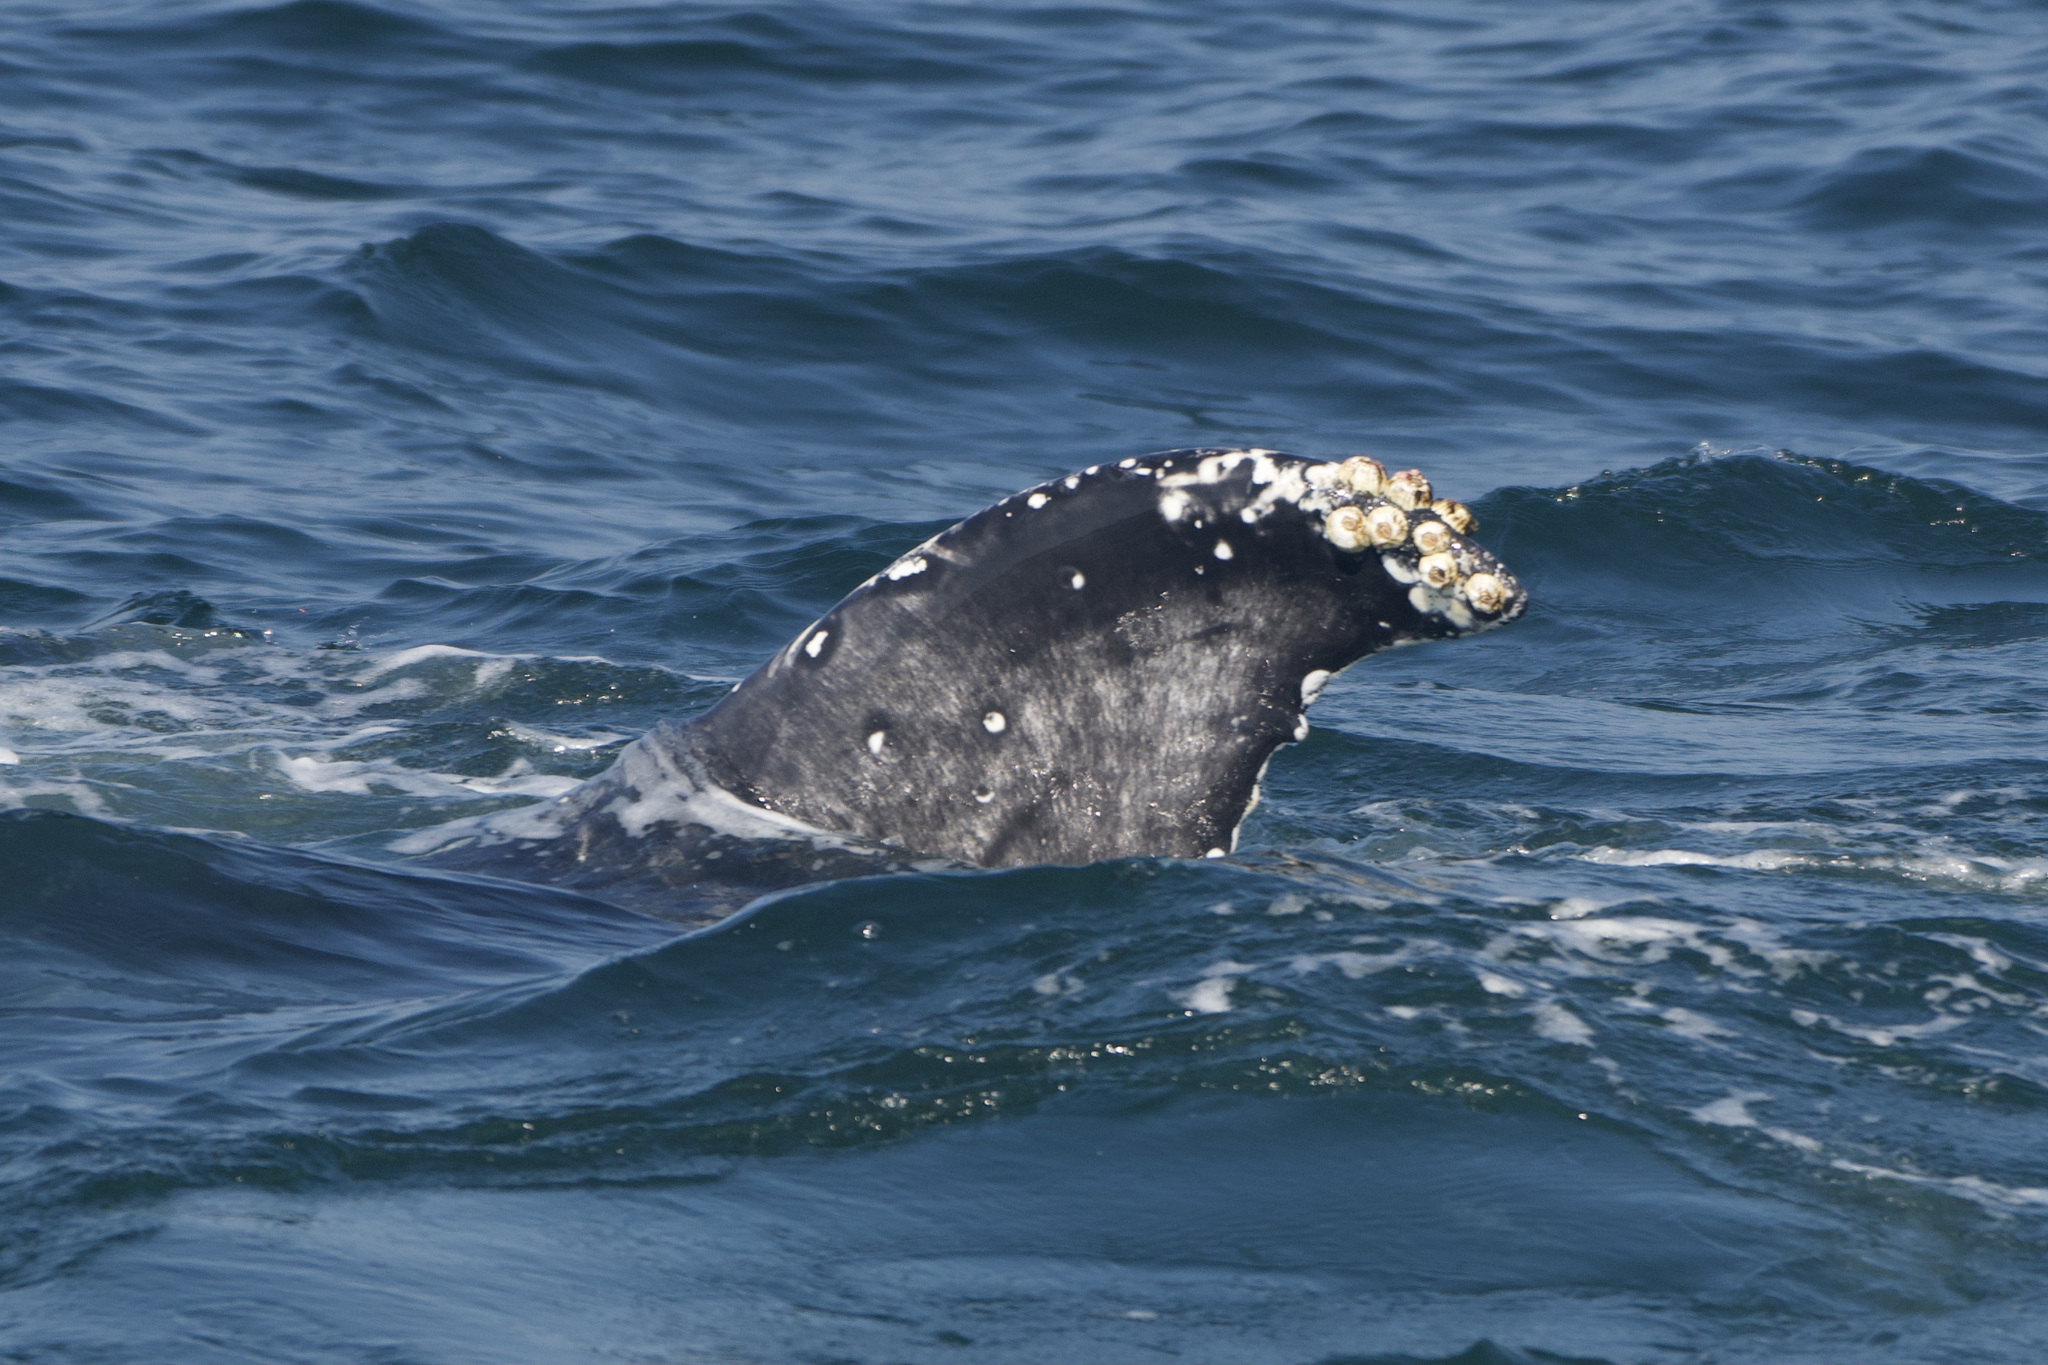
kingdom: Animalia
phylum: Chordata
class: Mammalia
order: Cetacea
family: Balaenopteridae
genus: Megaptera
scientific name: Megaptera novaeangliae
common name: Humpback whale
